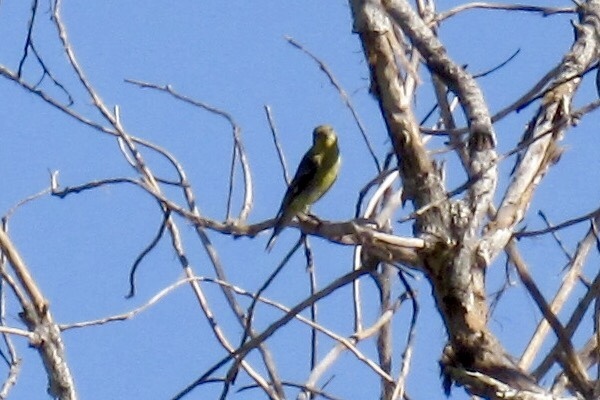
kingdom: Animalia
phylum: Chordata
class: Aves
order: Passeriformes
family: Fringillidae
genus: Spinus
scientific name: Spinus psaltria
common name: Lesser goldfinch
